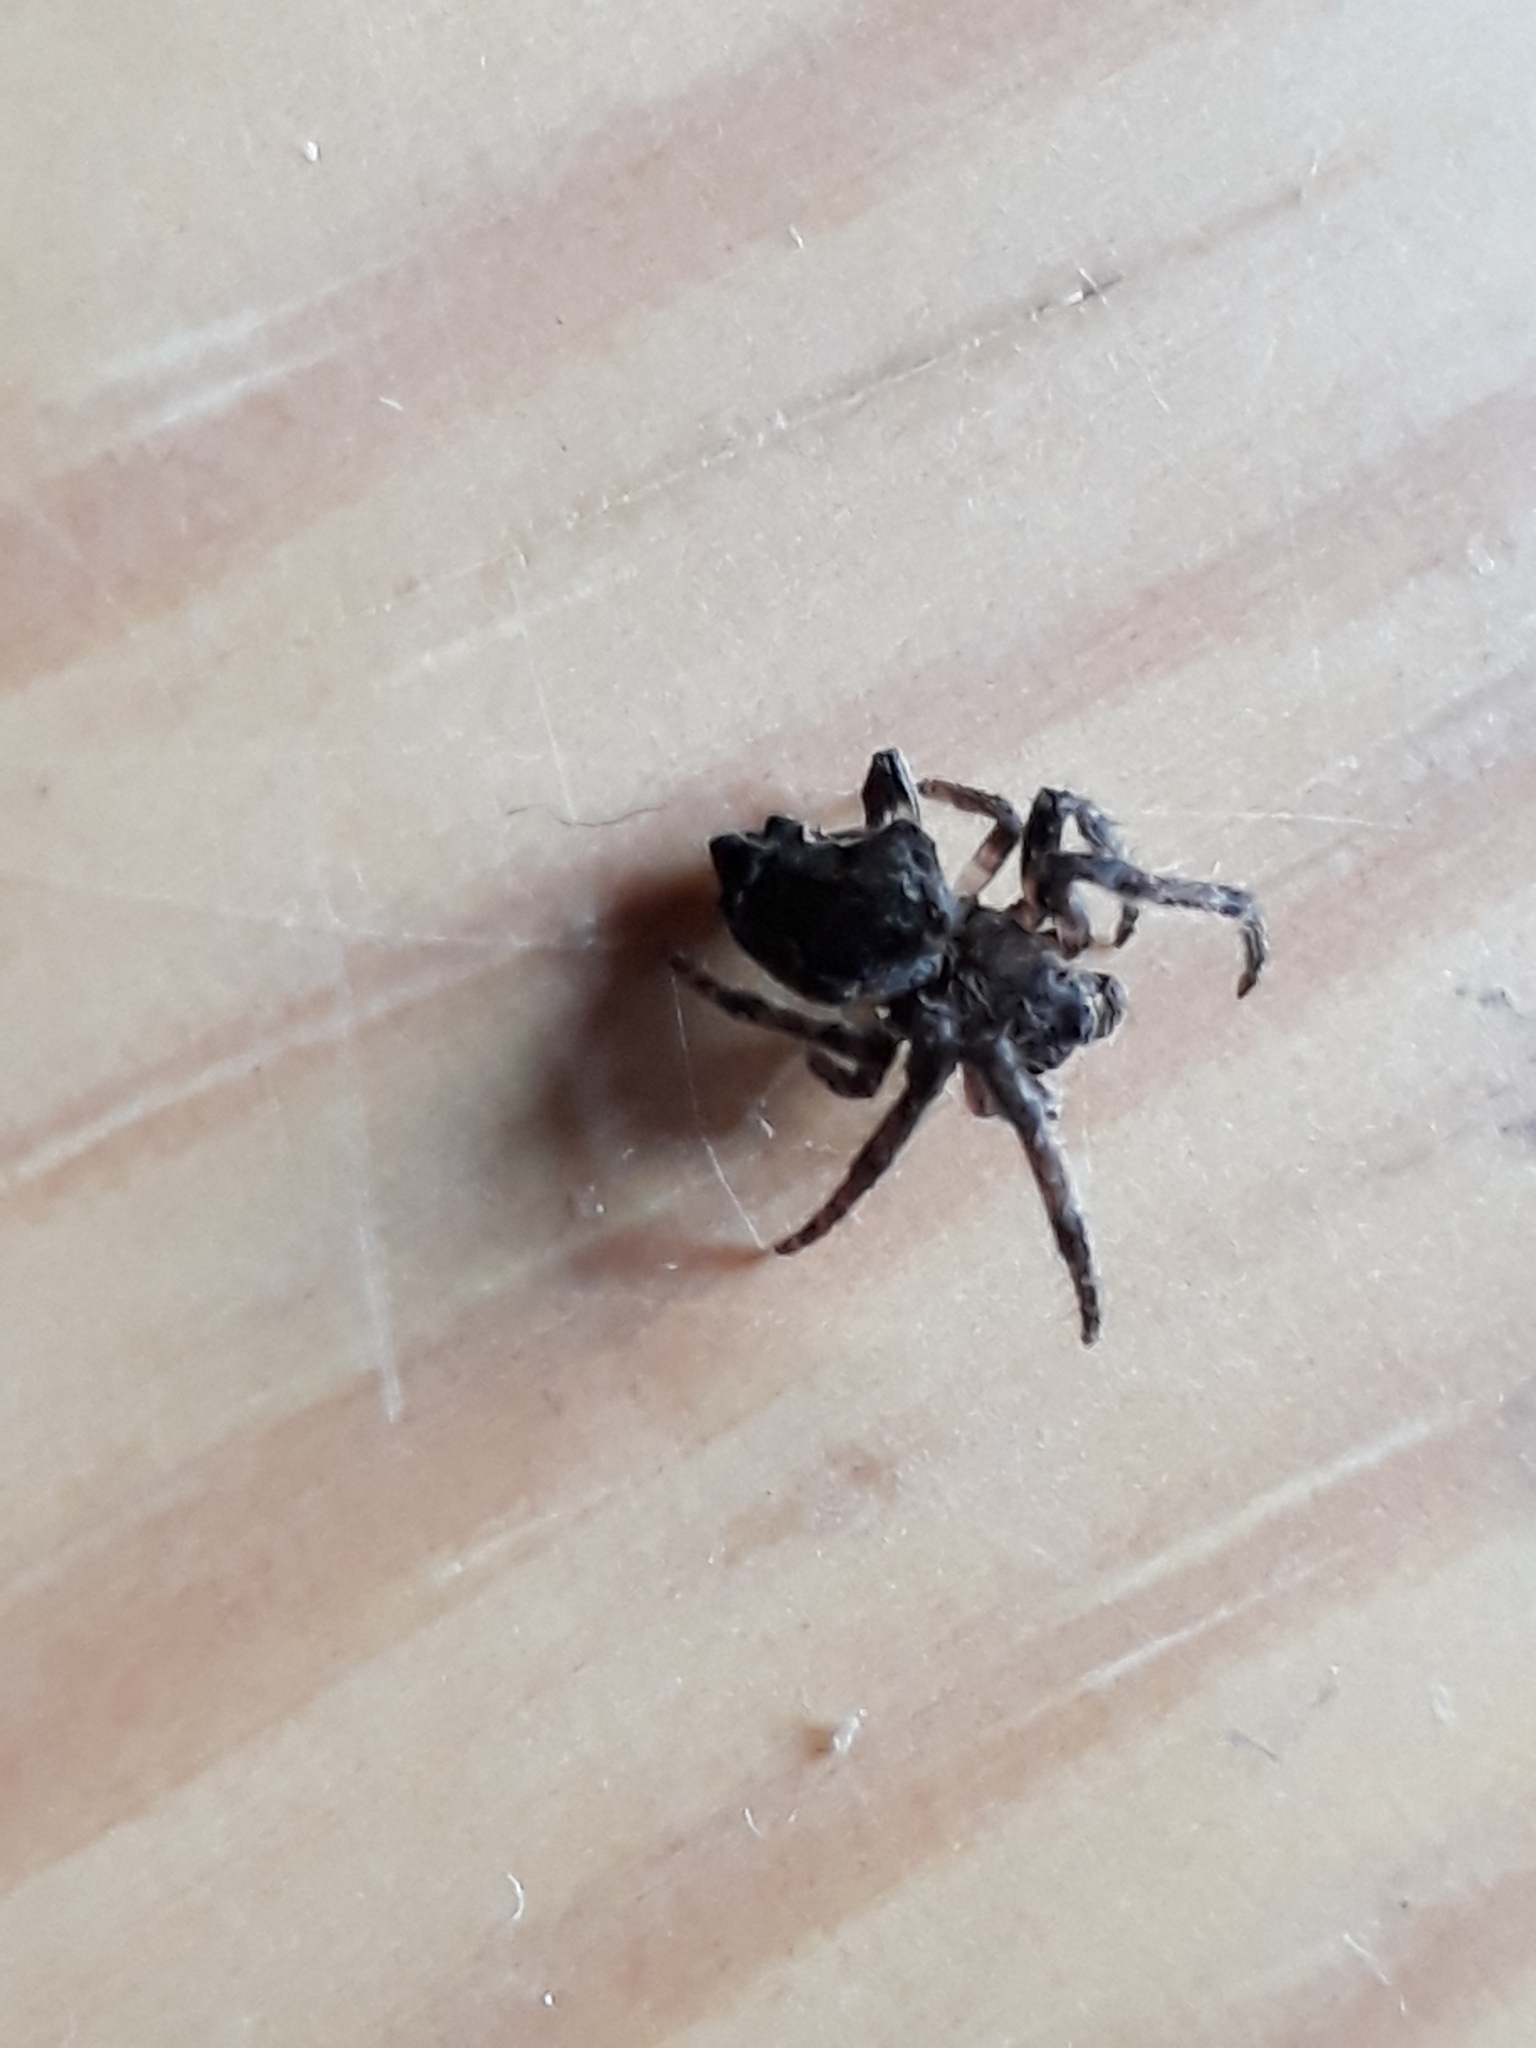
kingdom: Animalia
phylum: Arthropoda
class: Arachnida
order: Araneae
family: Araneidae
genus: Eriophora
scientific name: Eriophora pustulosa
